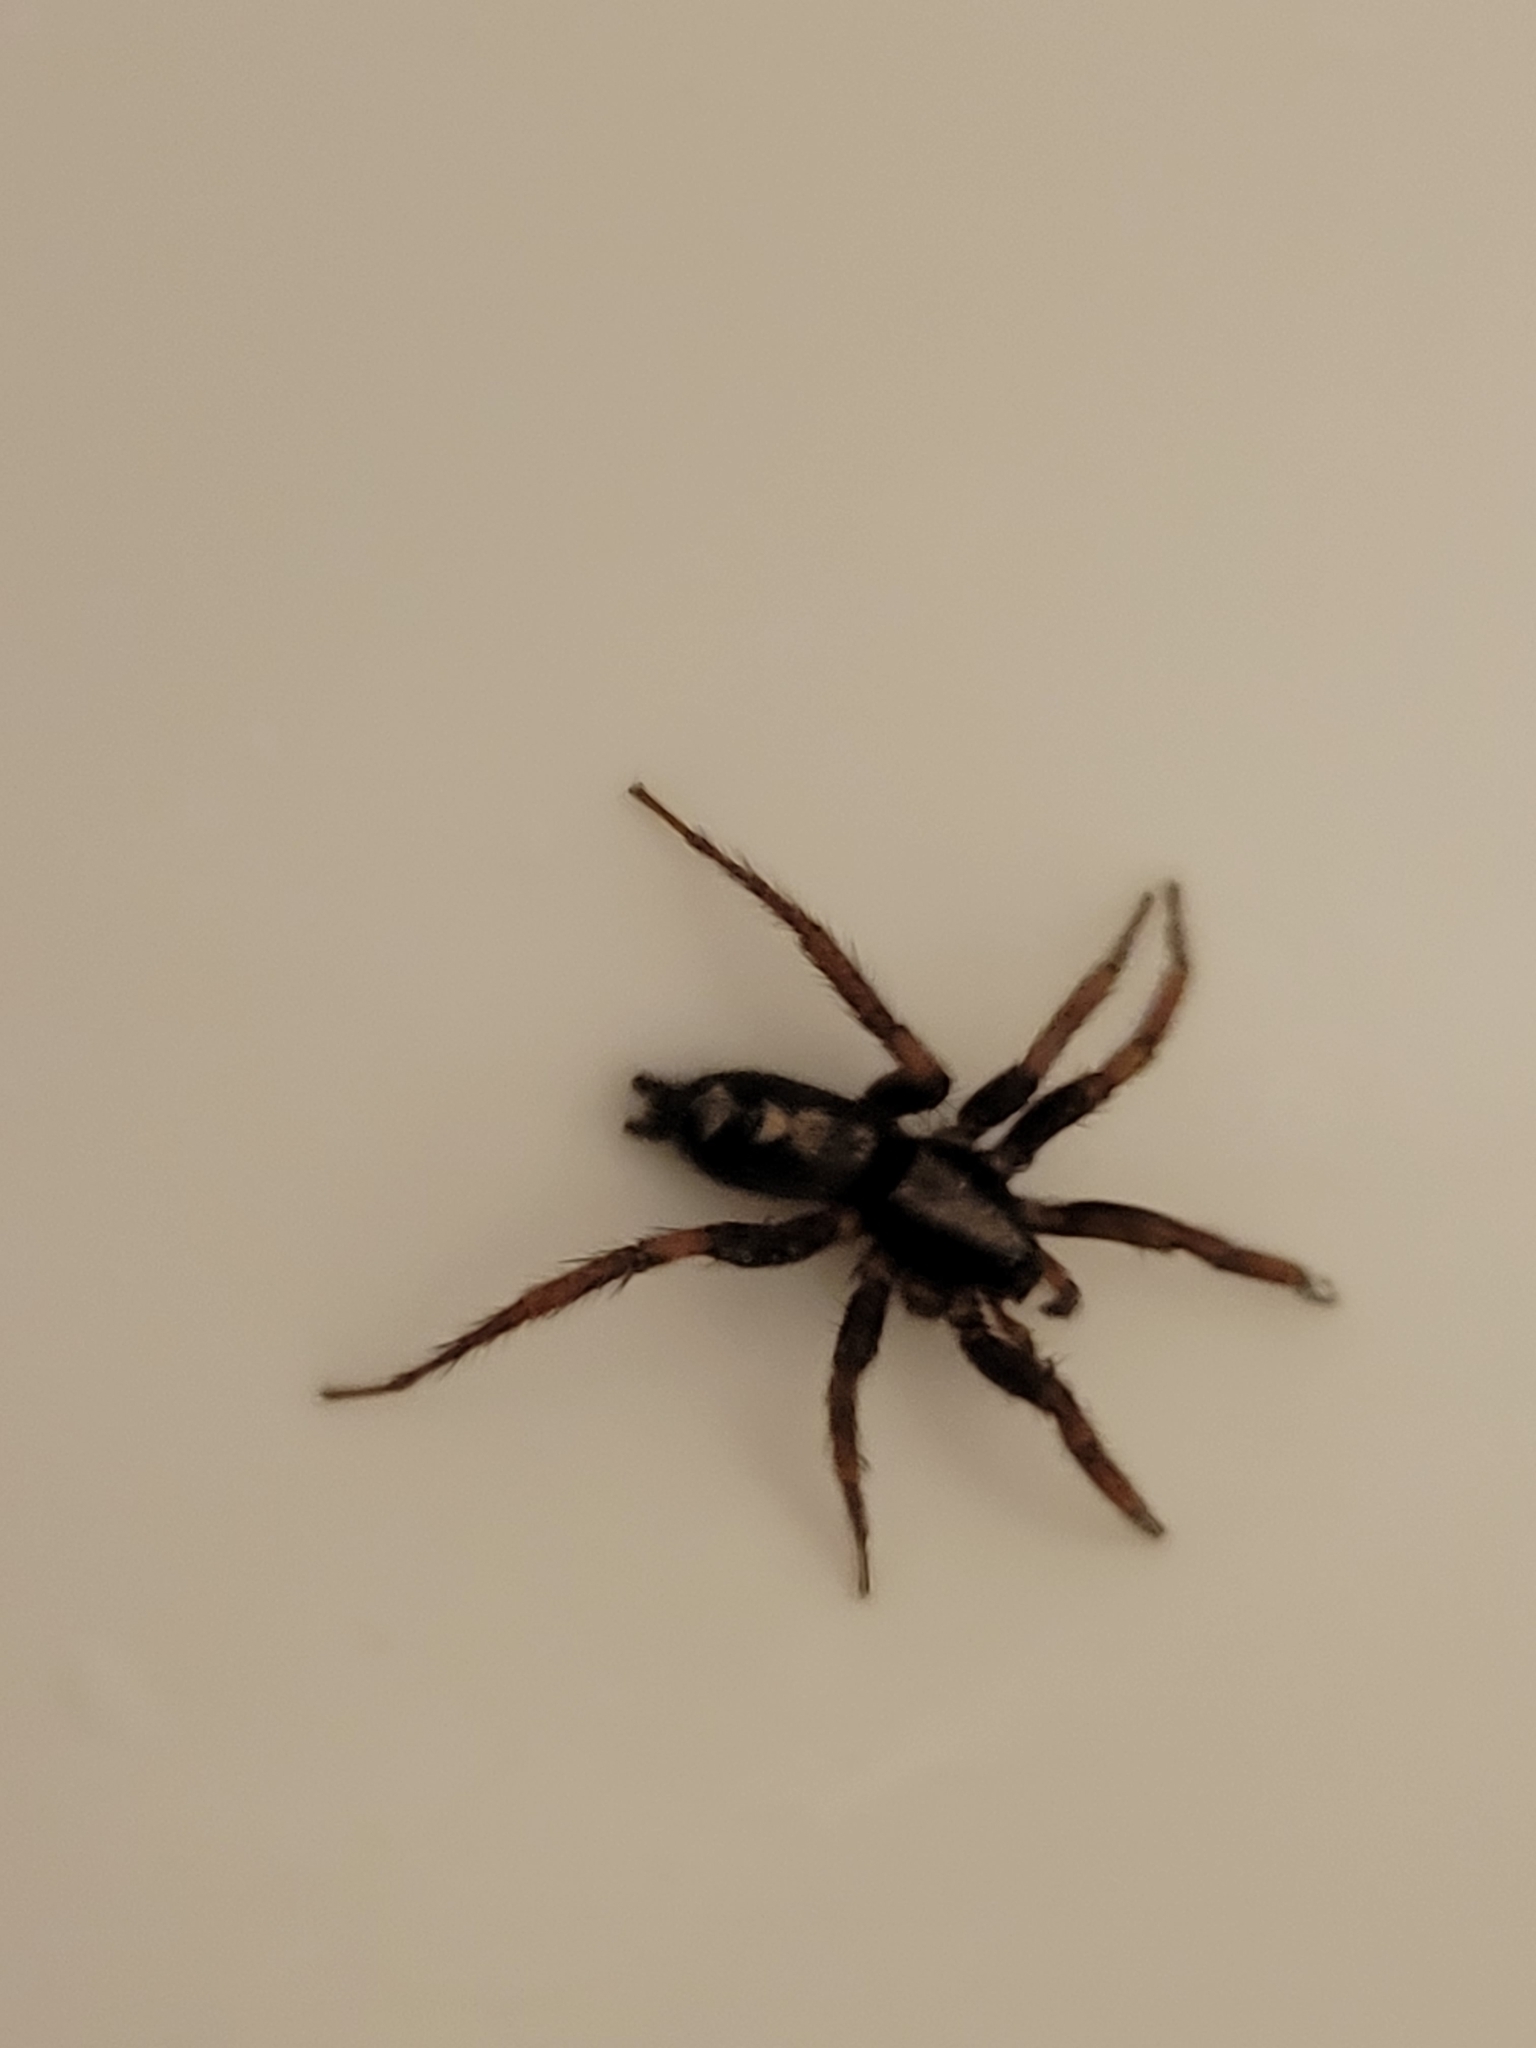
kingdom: Animalia
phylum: Arthropoda
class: Arachnida
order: Araneae
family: Gnaphosidae
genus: Herpyllus
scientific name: Herpyllus ecclesiasticus
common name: Eastern parson spider
